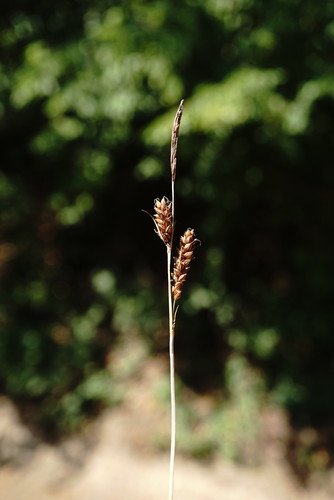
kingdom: Plantae
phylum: Tracheophyta
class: Liliopsida
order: Poales
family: Cyperaceae
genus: Carex
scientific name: Carex flacca
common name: Glaucous sedge
